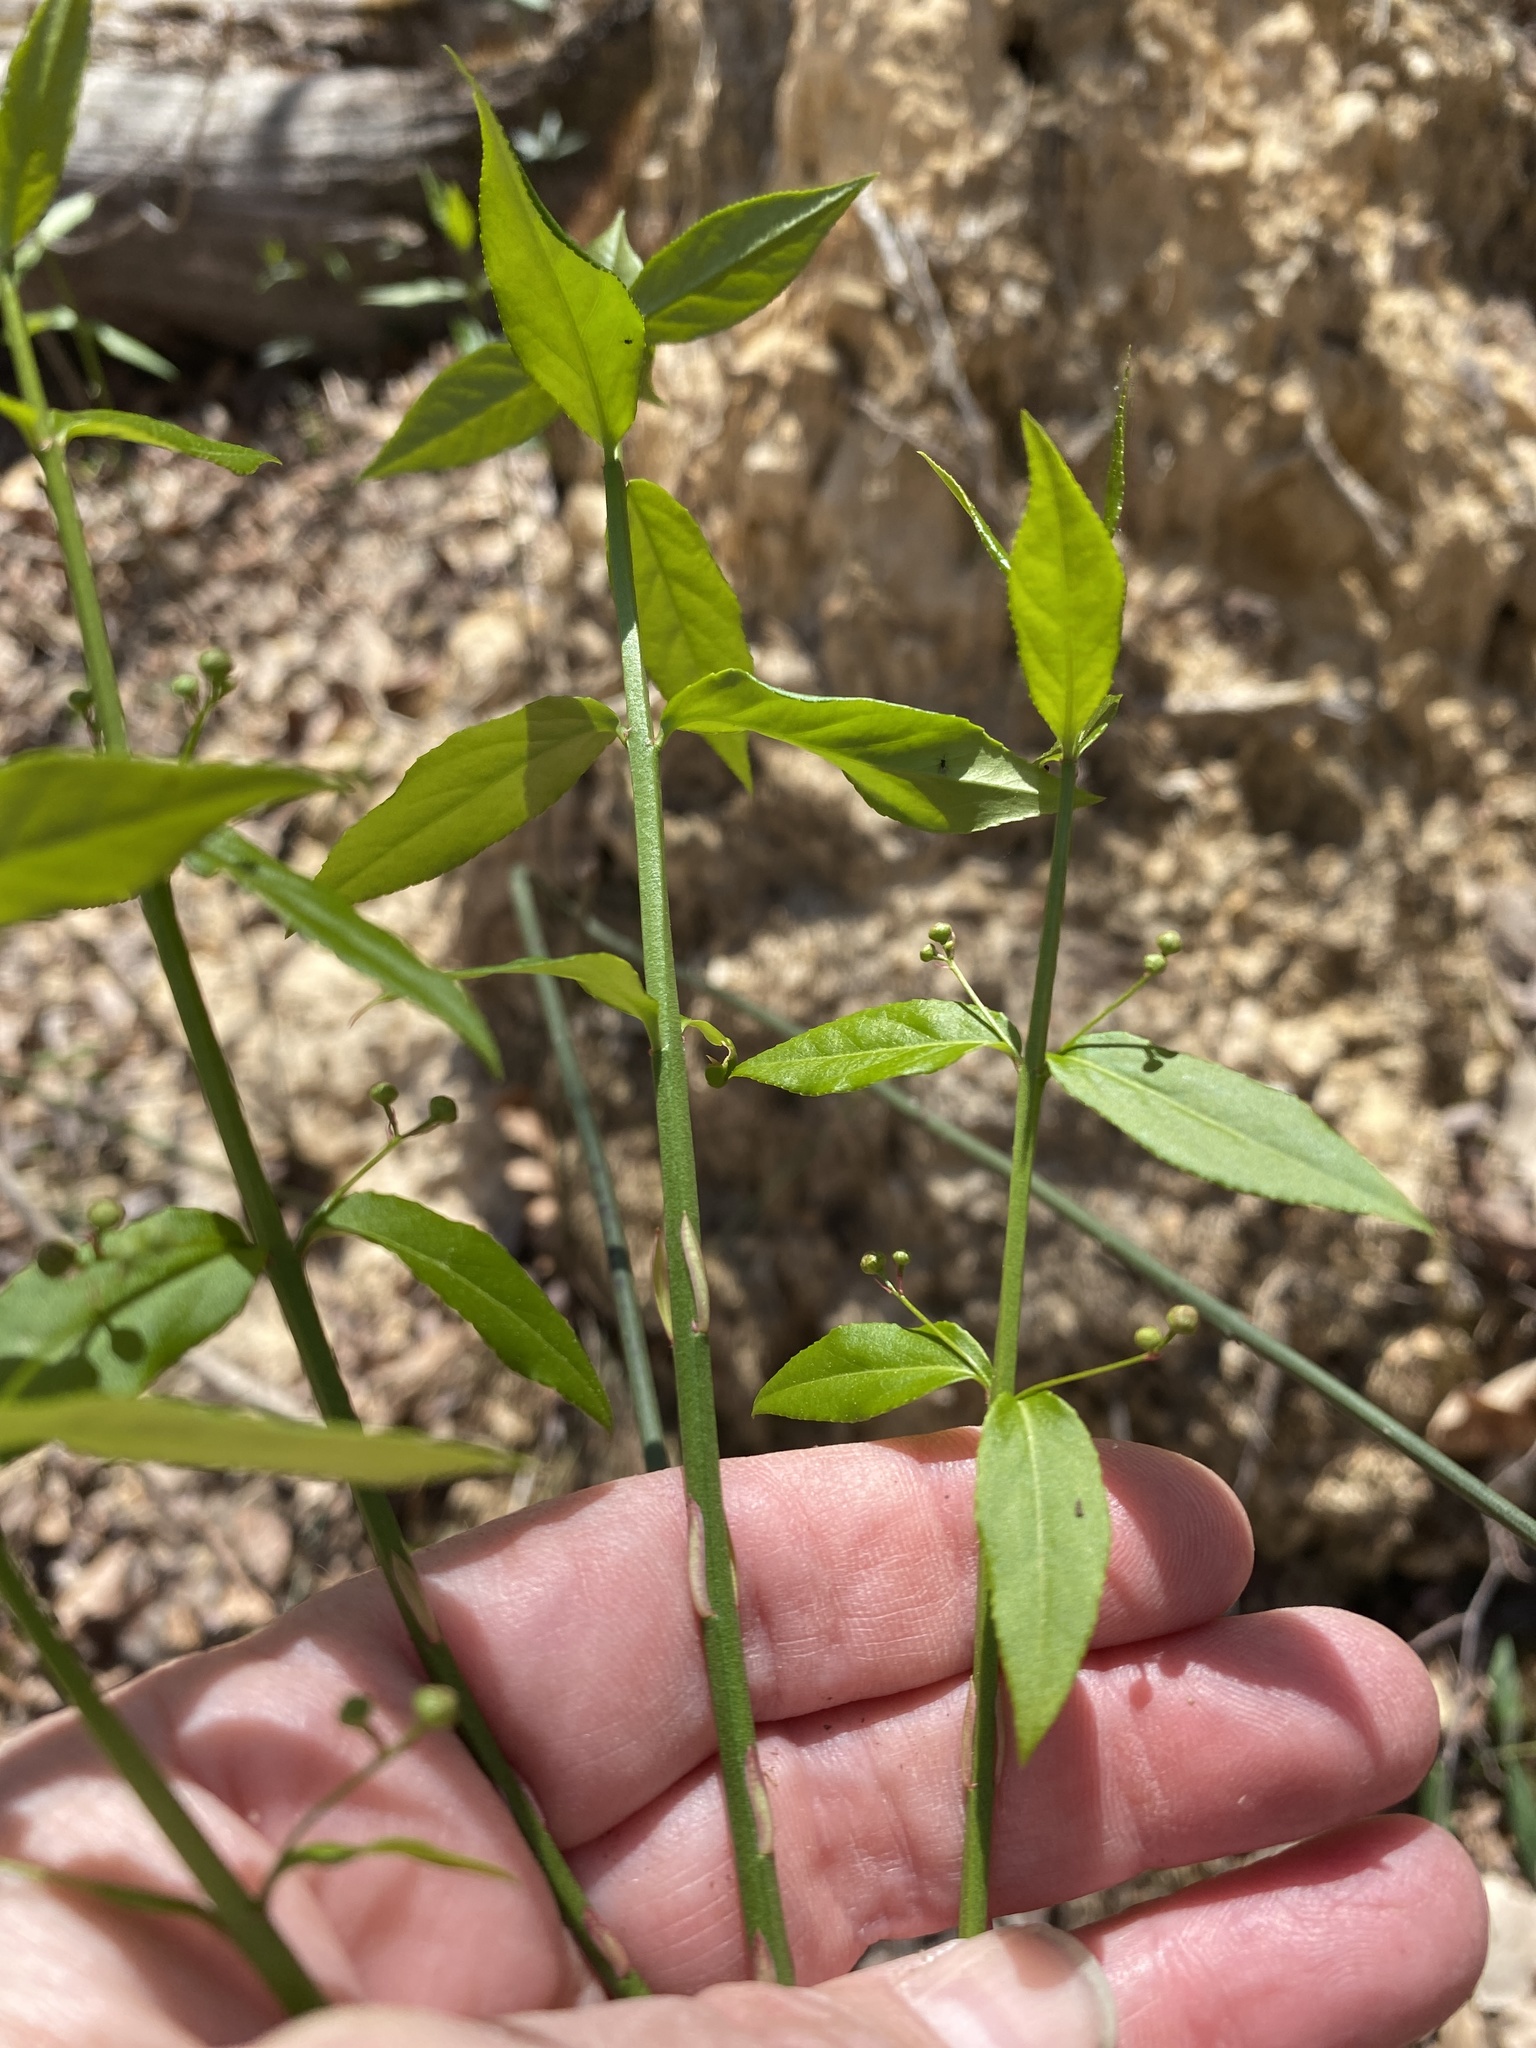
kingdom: Plantae
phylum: Tracheophyta
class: Magnoliopsida
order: Celastrales
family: Celastraceae
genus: Euonymus
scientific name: Euonymus americanus
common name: Bursting-heart
